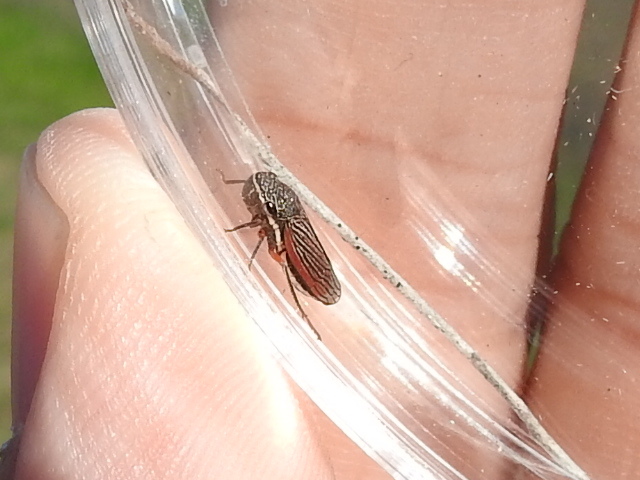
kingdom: Animalia
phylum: Arthropoda
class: Insecta
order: Hemiptera
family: Cicadellidae
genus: Cuerna
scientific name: Cuerna costalis
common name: Lateral-lined sharpshooter
